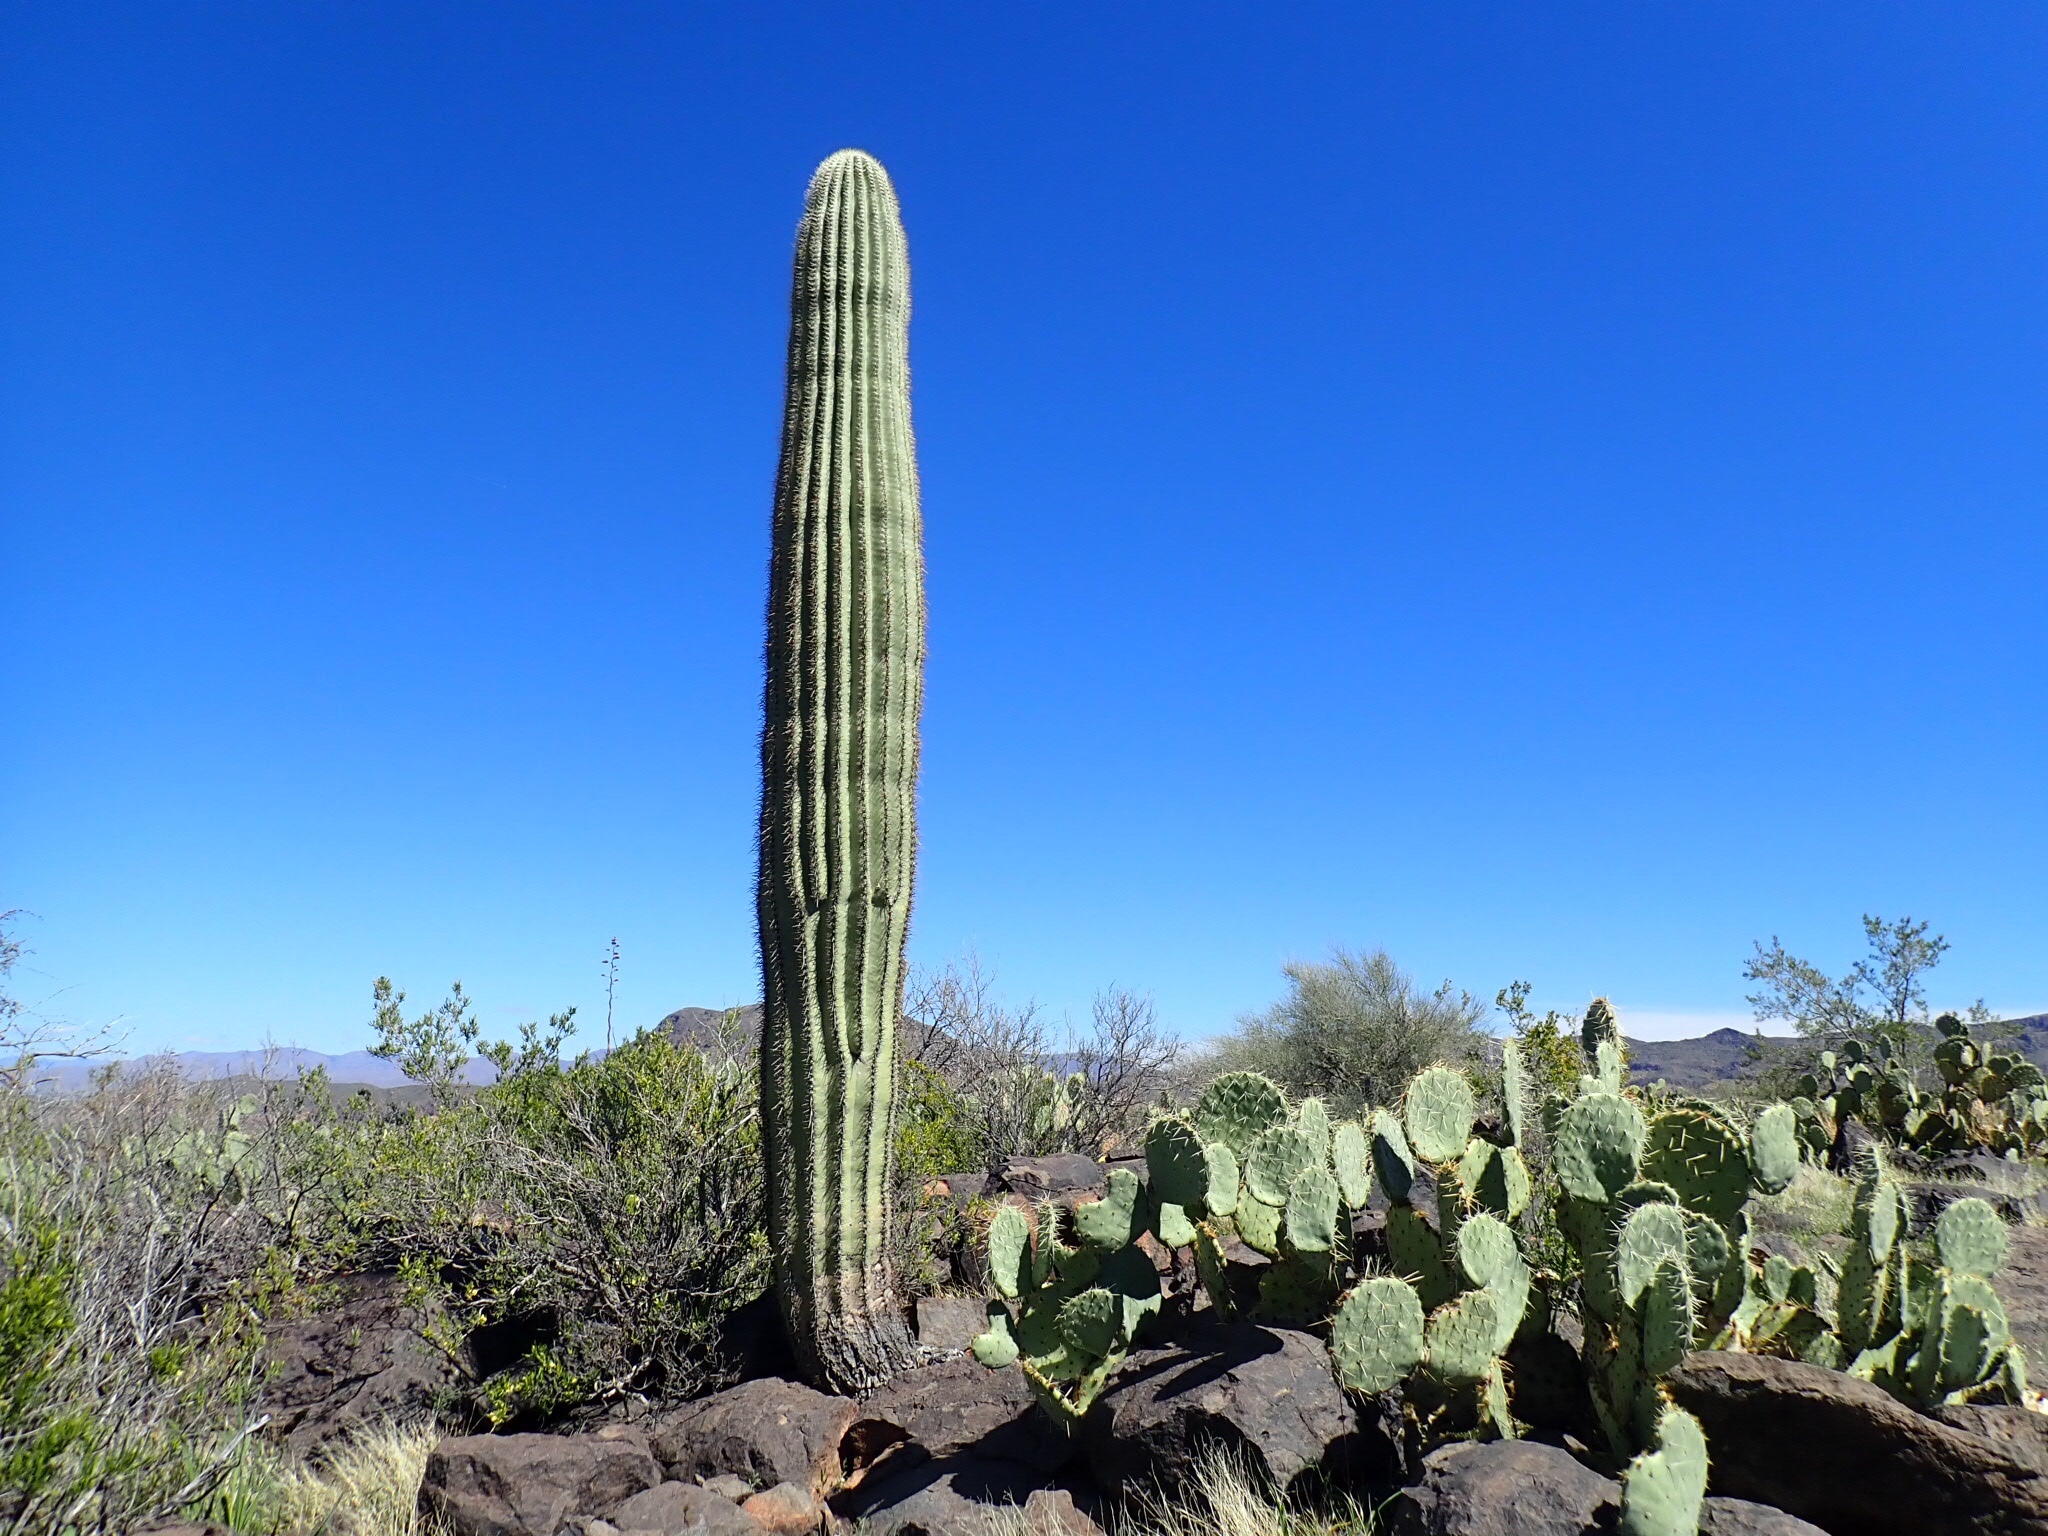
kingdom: Plantae
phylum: Tracheophyta
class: Magnoliopsida
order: Caryophyllales
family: Cactaceae
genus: Carnegiea
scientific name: Carnegiea gigantea
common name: Saguaro
